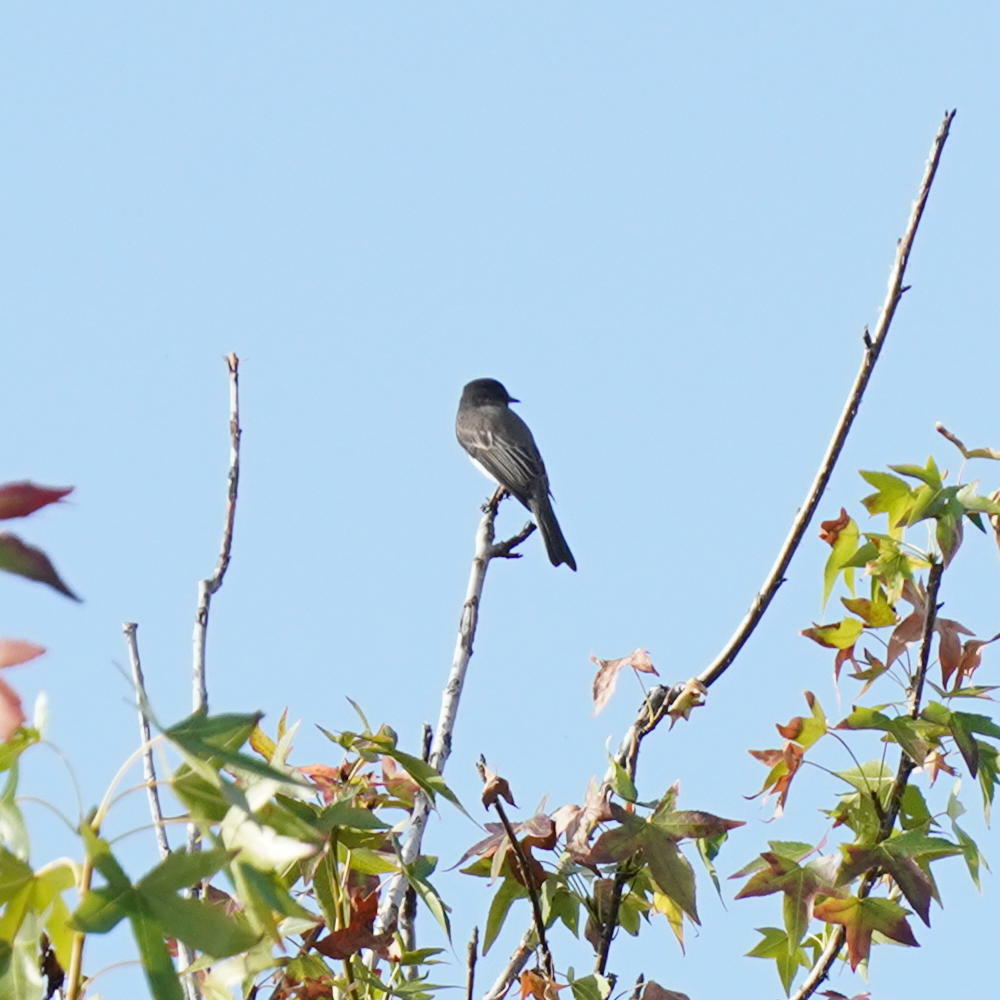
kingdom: Animalia
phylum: Chordata
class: Aves
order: Passeriformes
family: Tyrannidae
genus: Sayornis
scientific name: Sayornis nigricans
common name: Black phoebe
